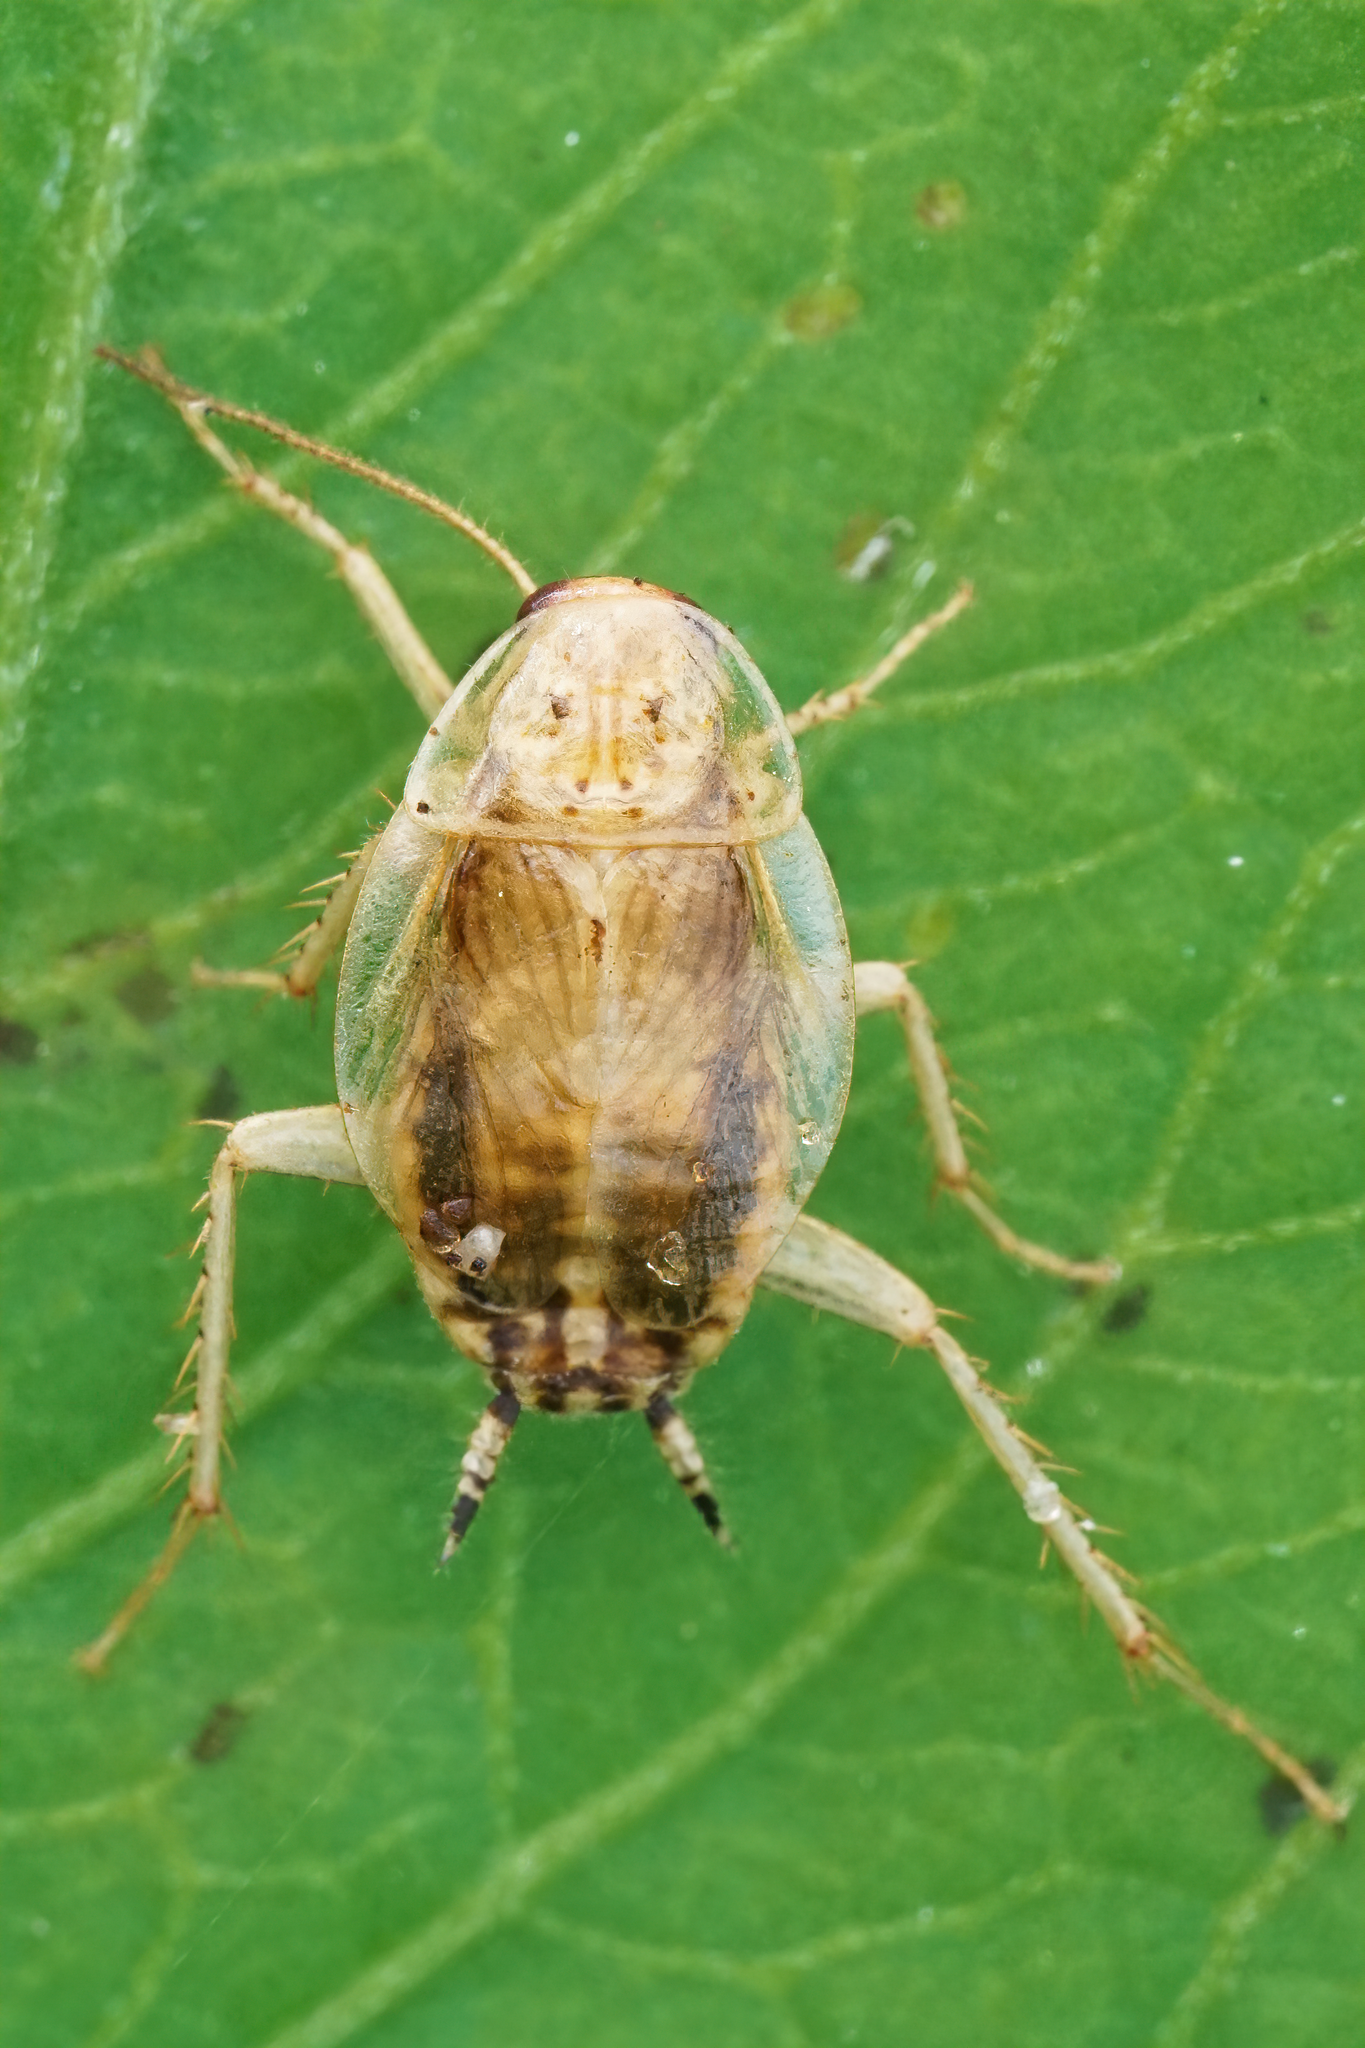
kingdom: Animalia
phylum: Arthropoda
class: Insecta
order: Blattodea
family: Ectobiidae
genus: Cariblatta
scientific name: Cariblatta minima
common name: Least yellow cockroach
